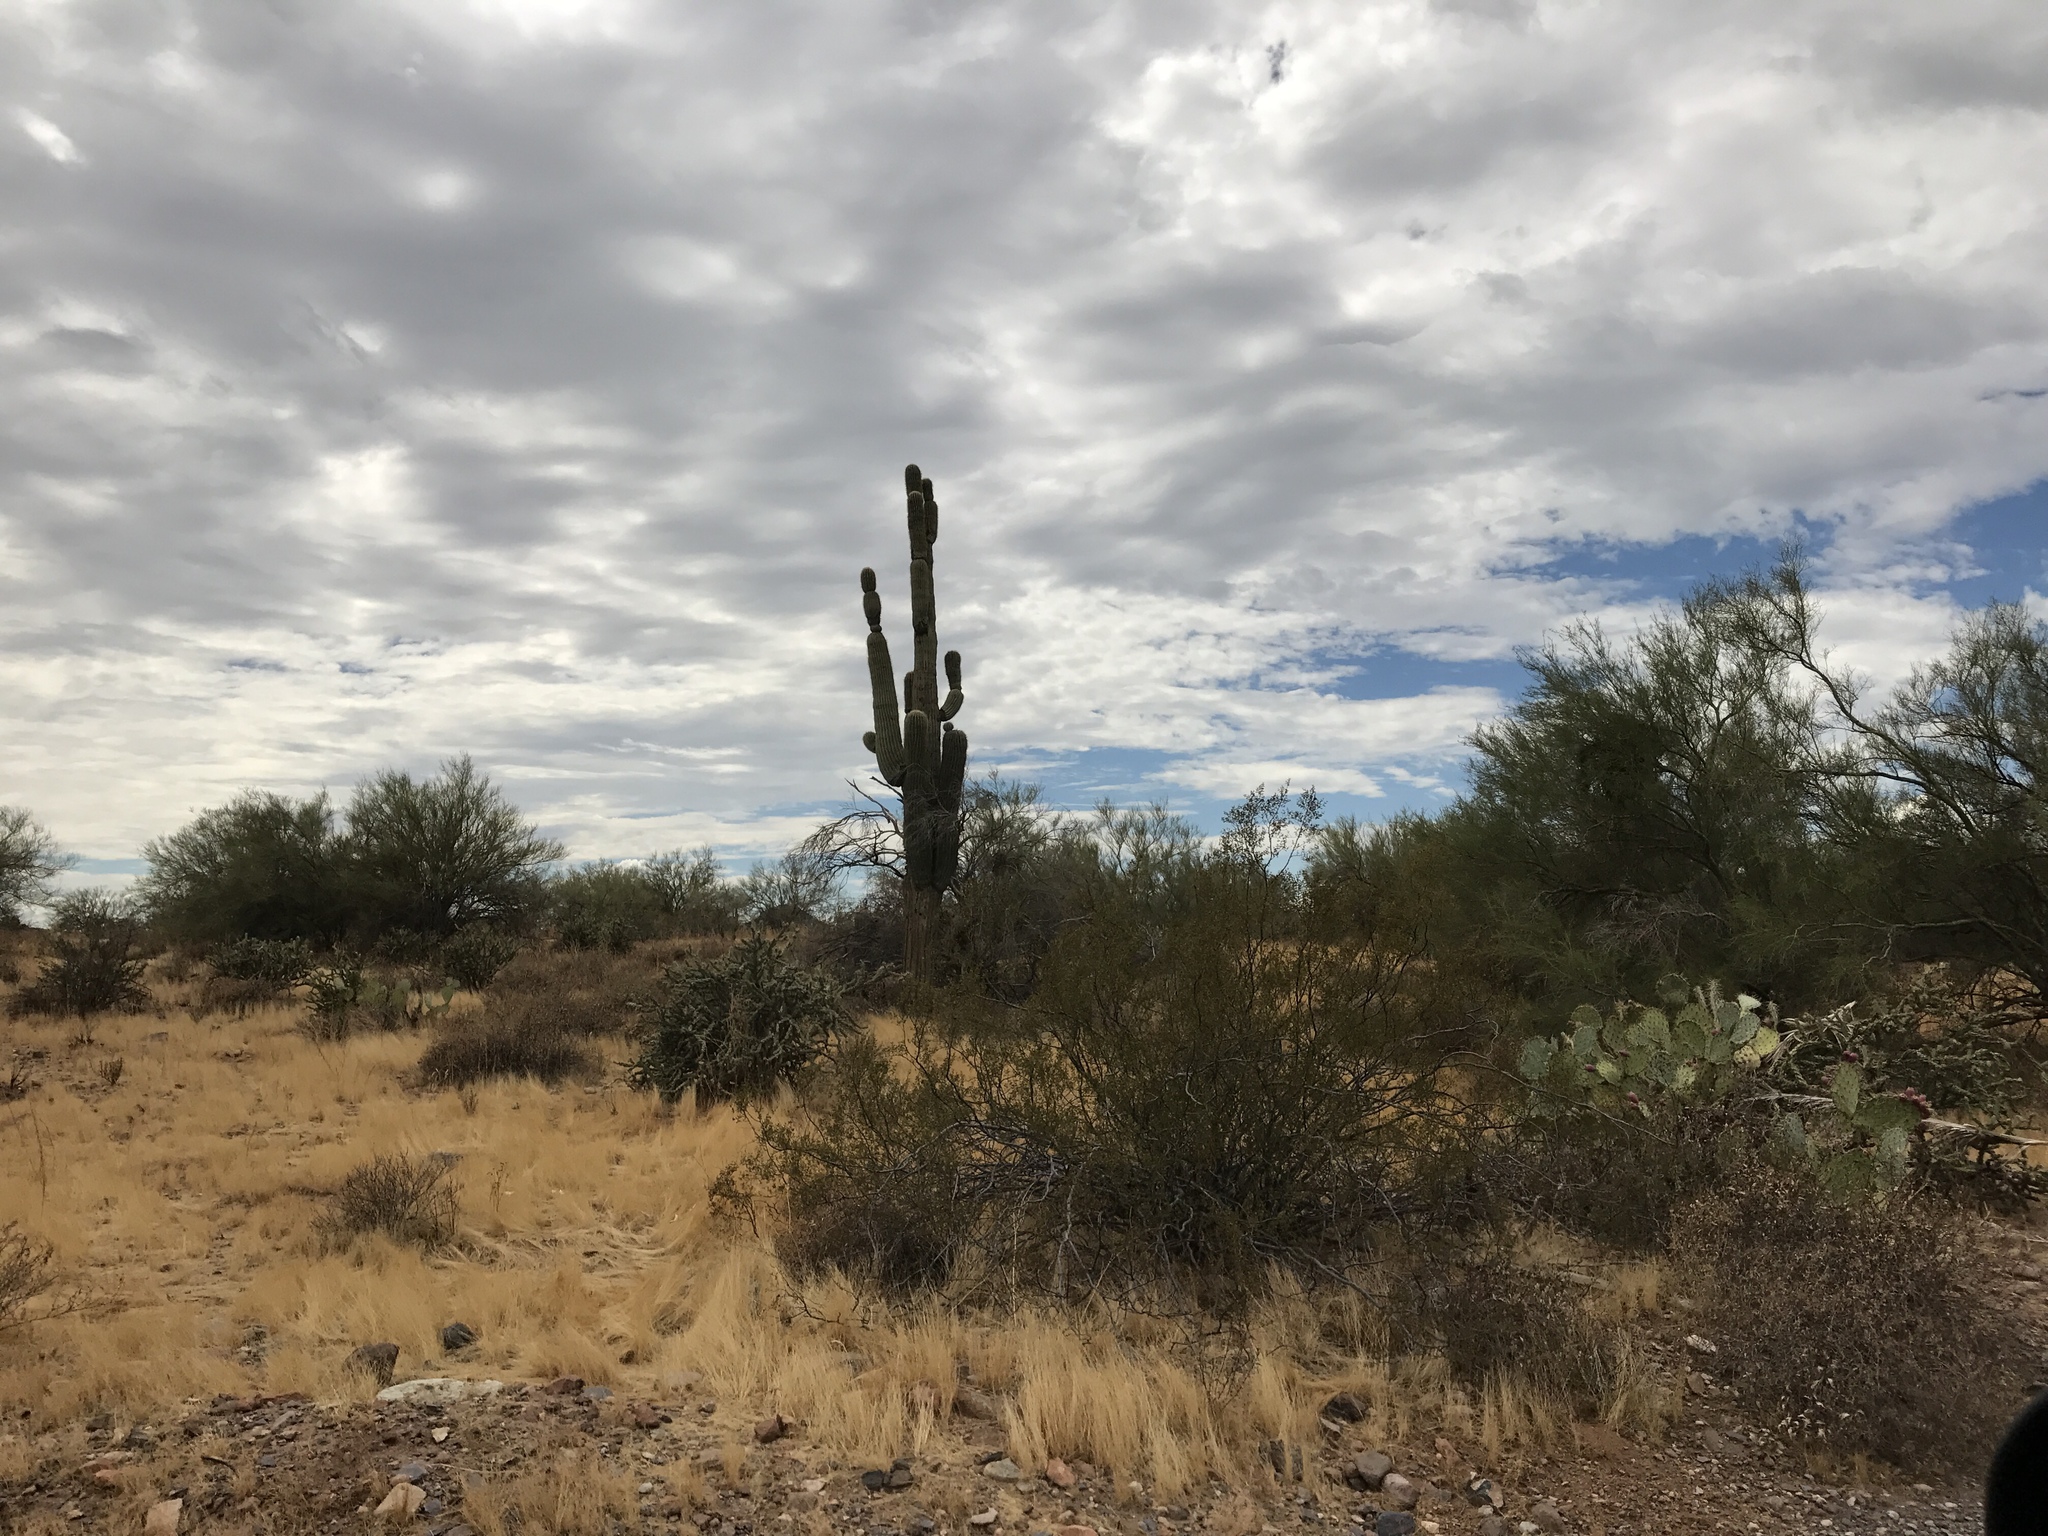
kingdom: Plantae
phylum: Tracheophyta
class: Magnoliopsida
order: Caryophyllales
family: Cactaceae
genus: Carnegiea
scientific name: Carnegiea gigantea
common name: Saguaro
